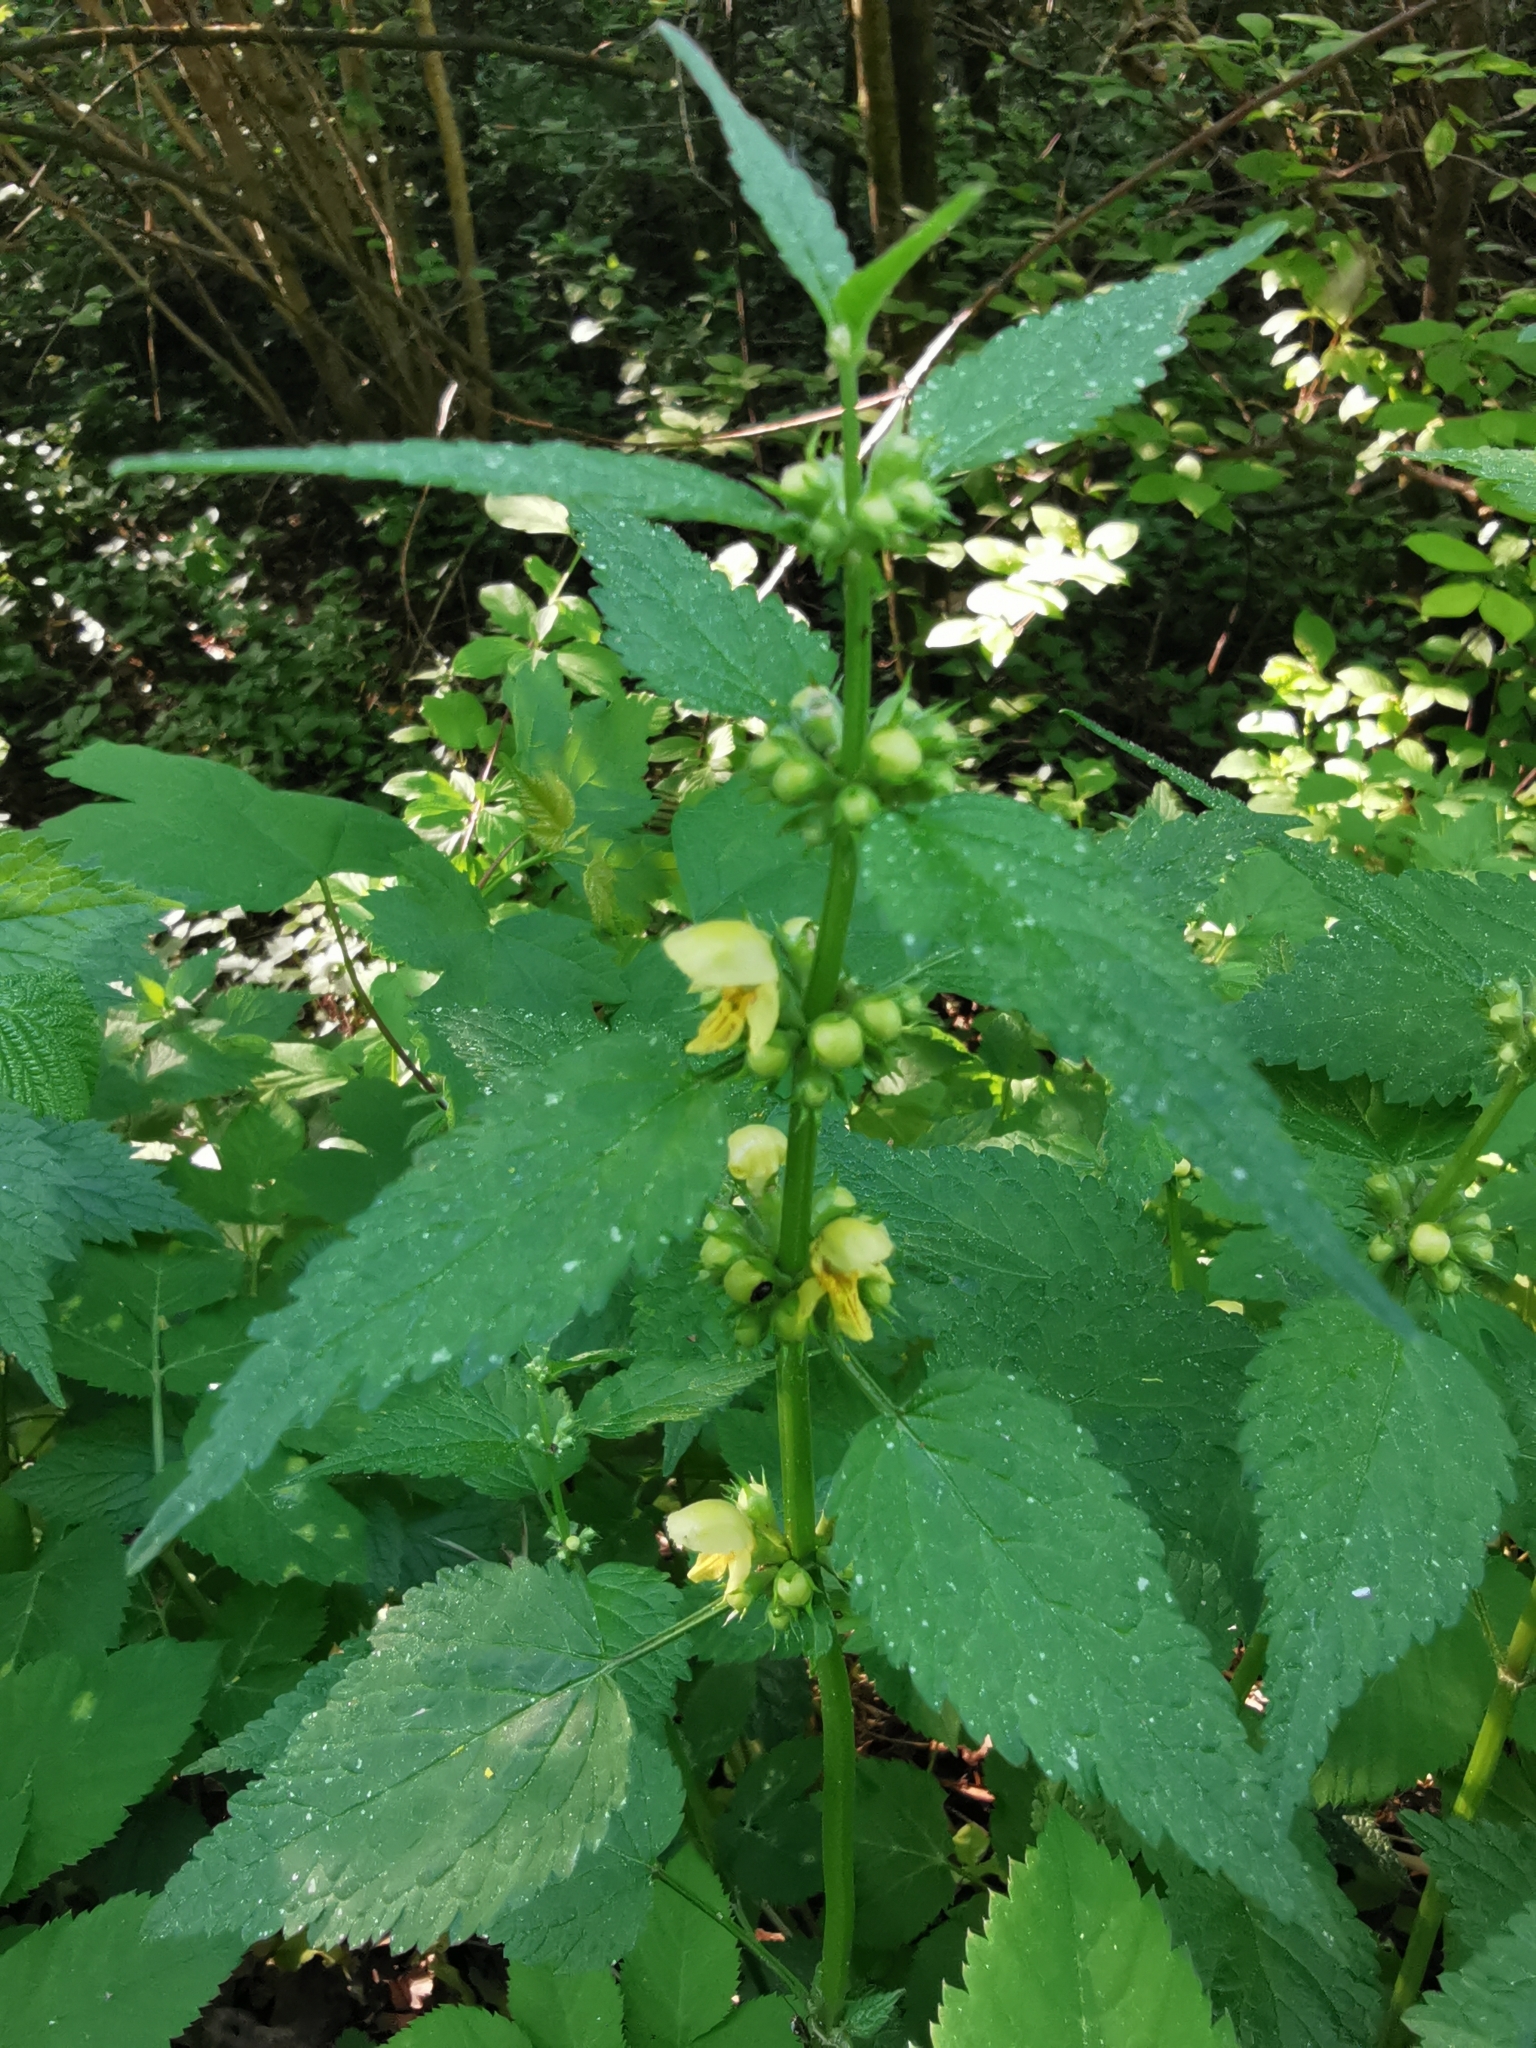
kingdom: Plantae
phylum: Tracheophyta
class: Magnoliopsida
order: Lamiales
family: Lamiaceae
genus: Lamium
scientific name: Lamium galeobdolon
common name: Yellow archangel
